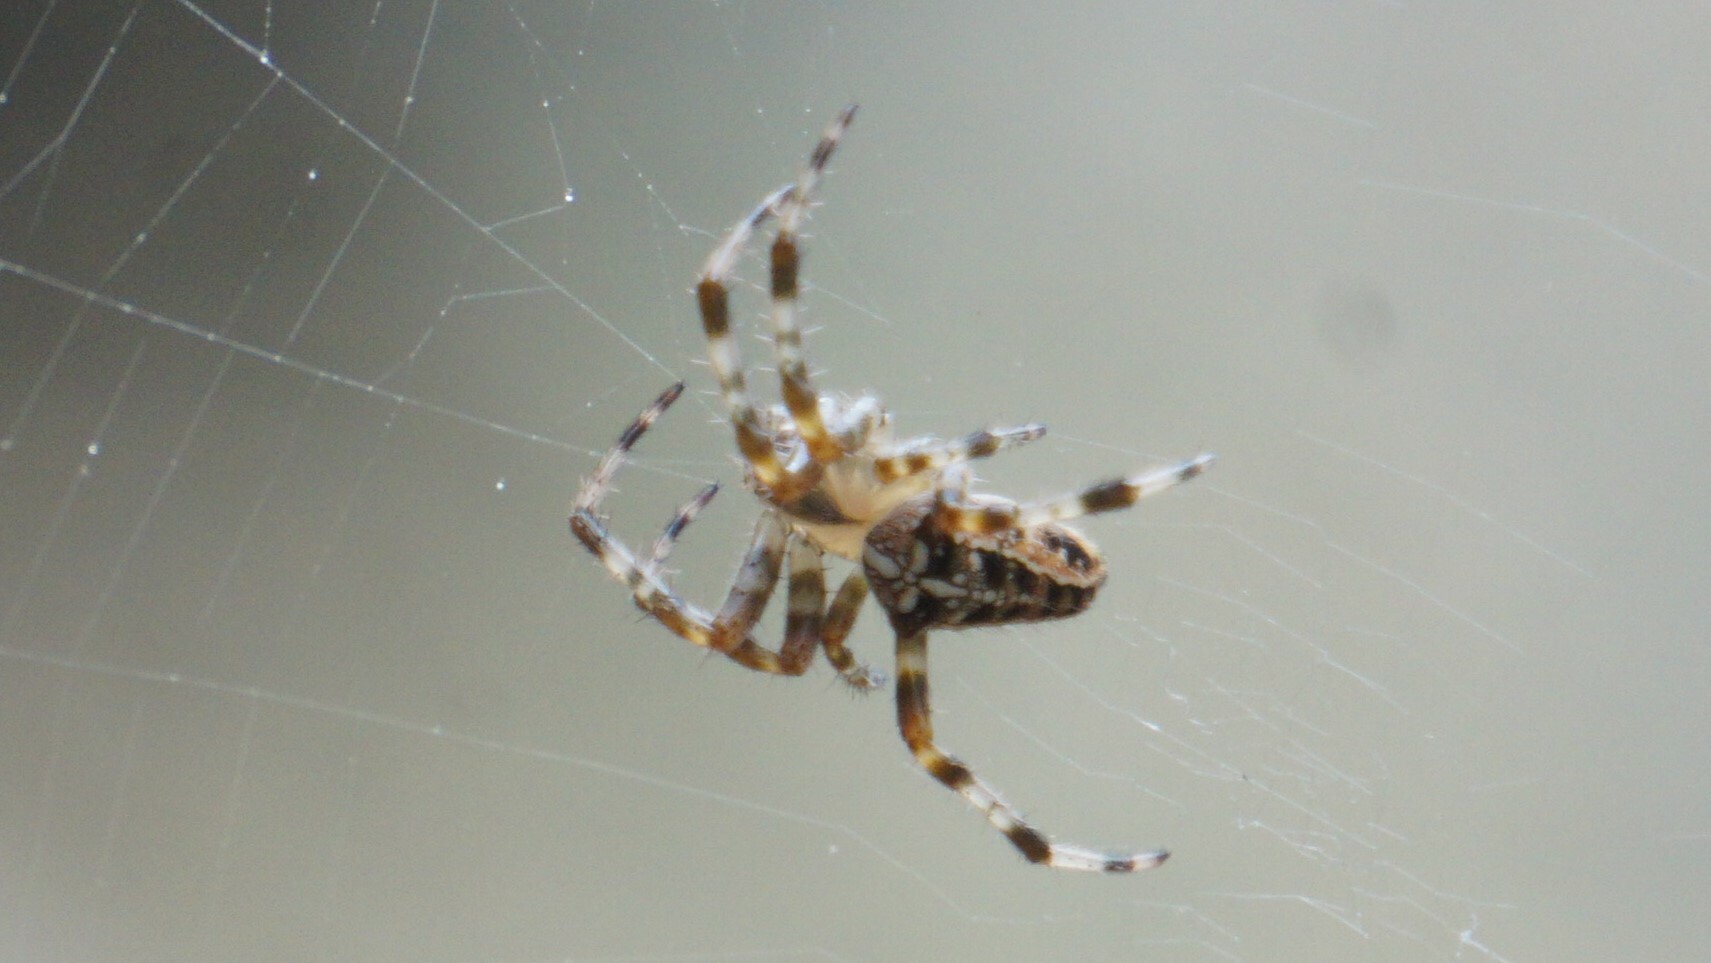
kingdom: Animalia
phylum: Arthropoda
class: Arachnida
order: Araneae
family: Araneidae
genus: Araneus
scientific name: Araneus diadematus
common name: Cross orbweaver
